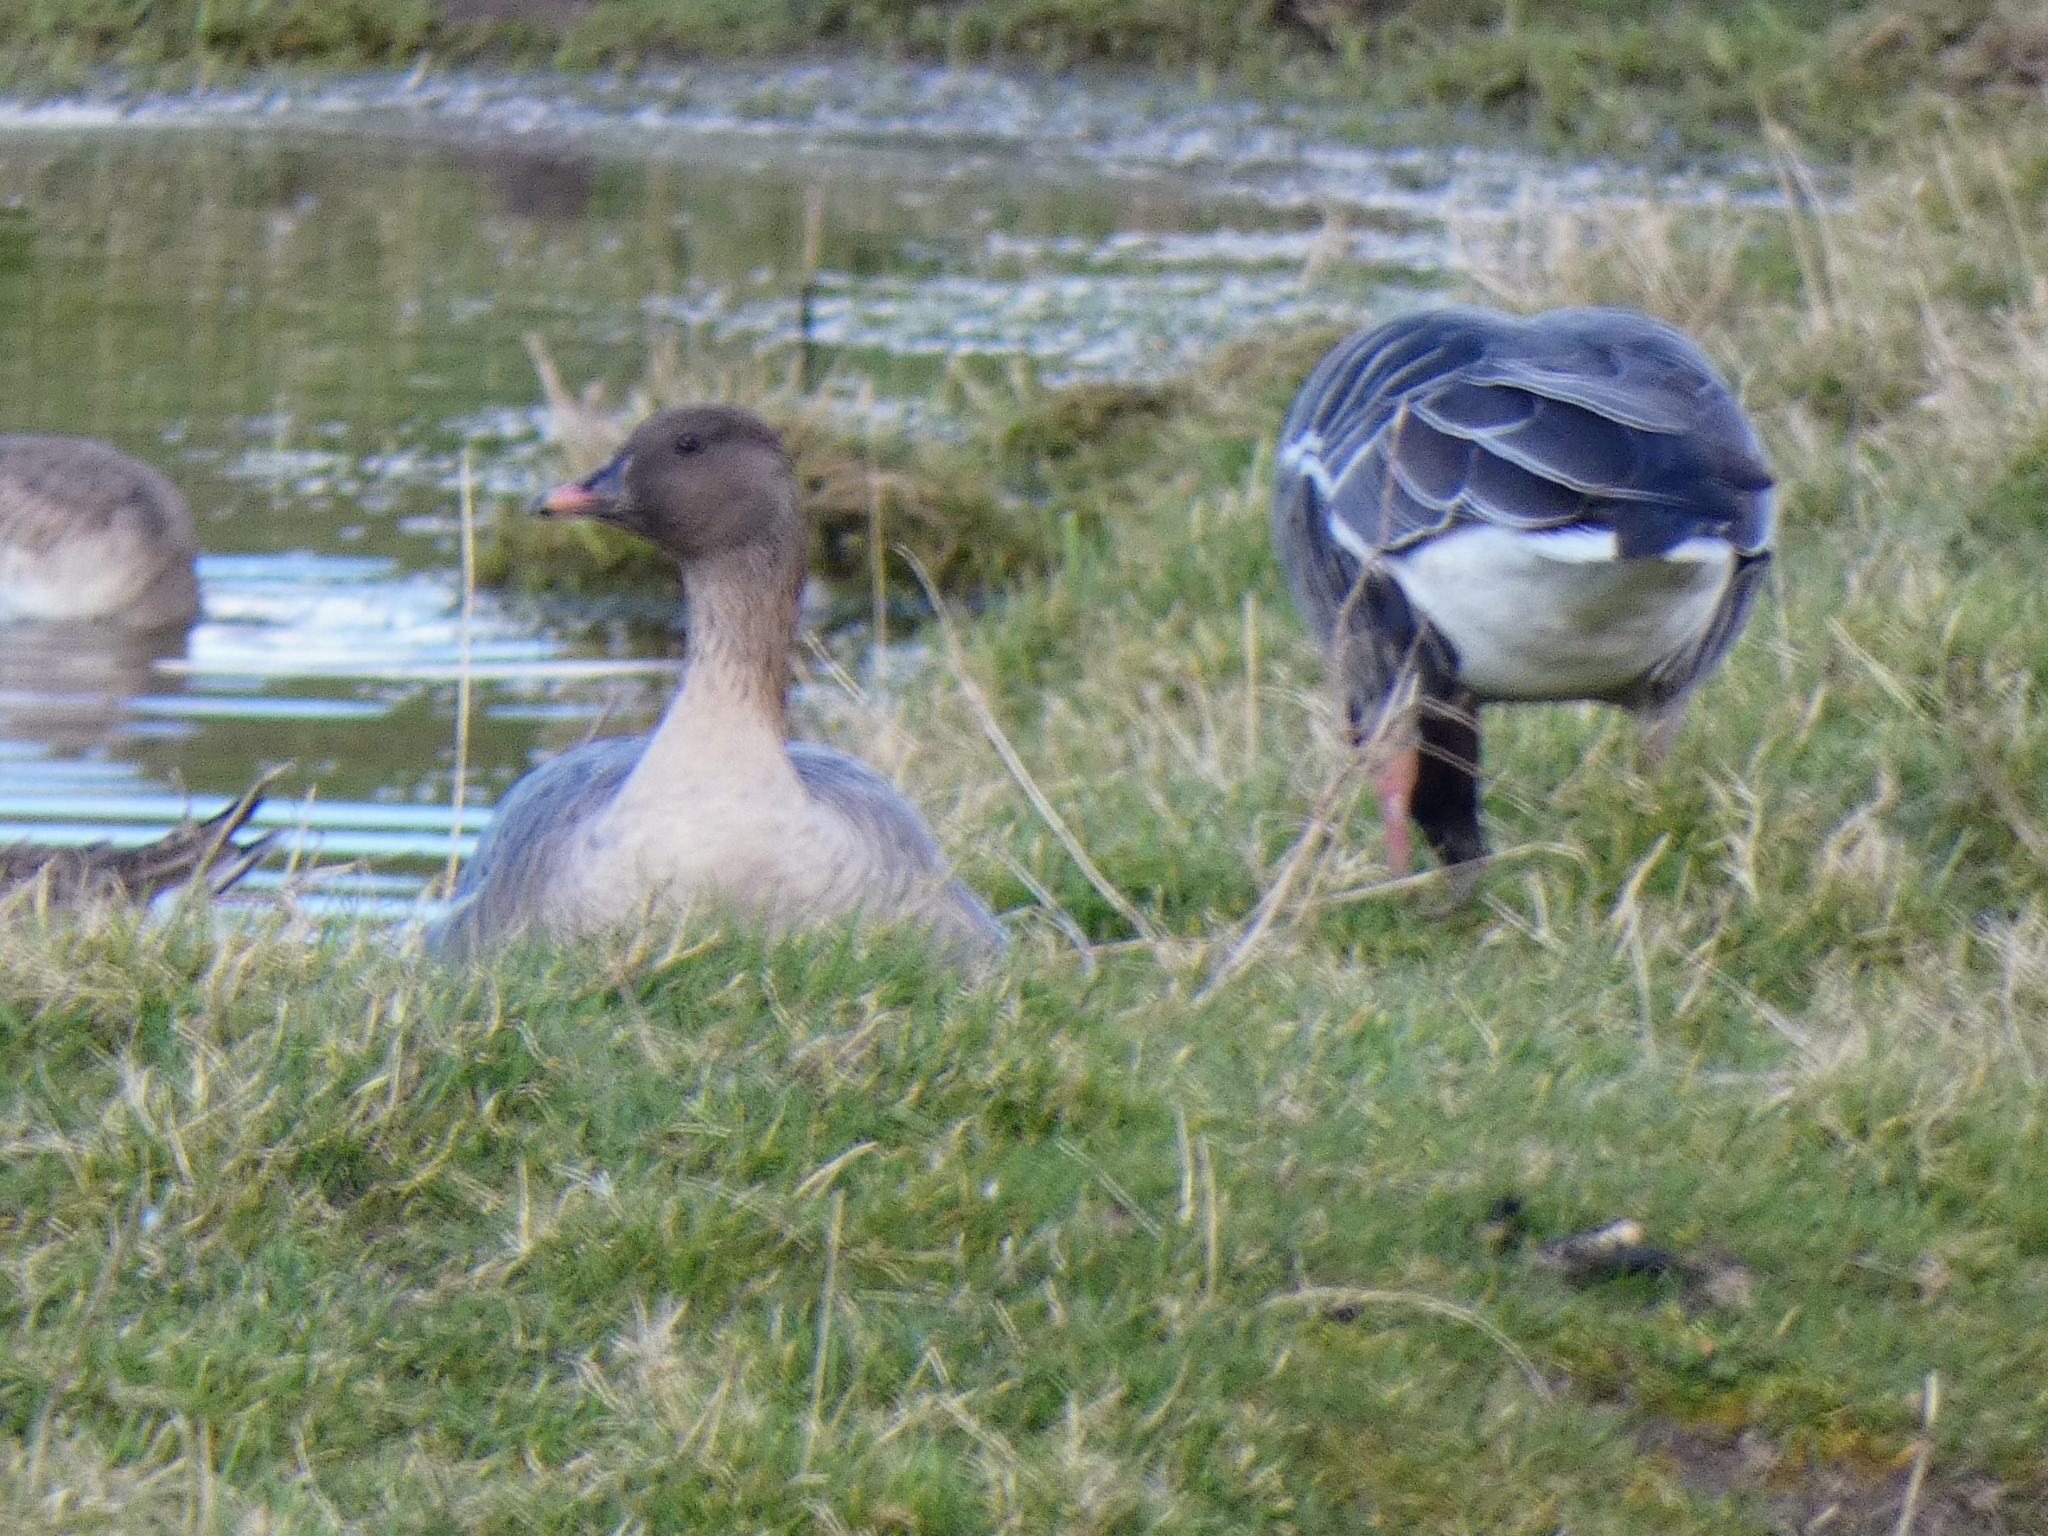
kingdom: Animalia
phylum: Chordata
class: Aves
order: Anseriformes
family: Anatidae
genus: Anser
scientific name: Anser brachyrhynchus
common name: Pink-footed goose
